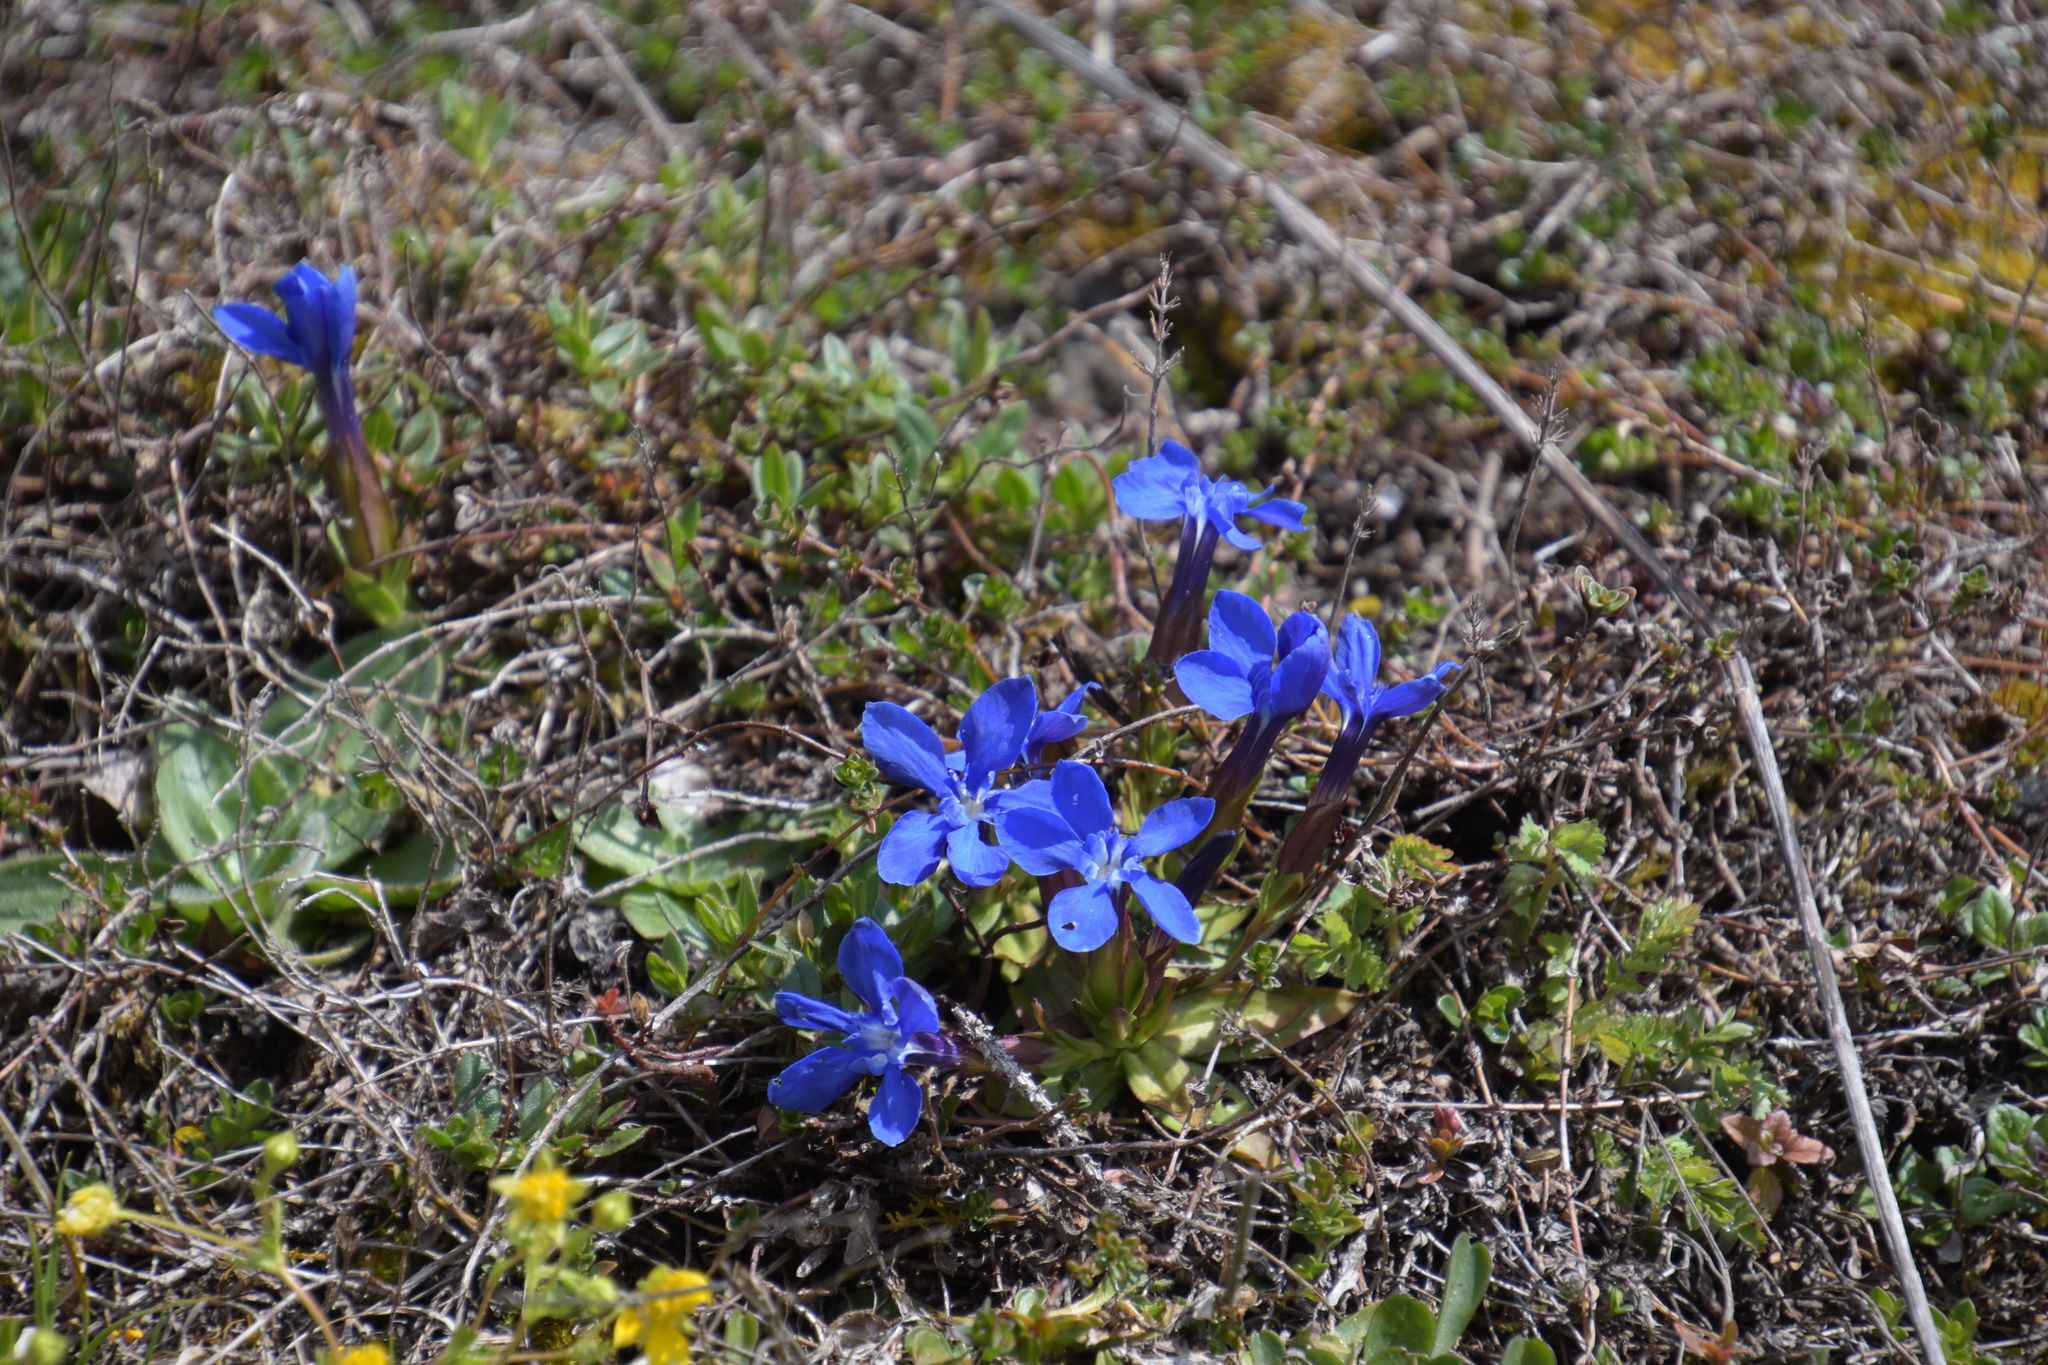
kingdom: Plantae
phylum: Tracheophyta
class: Magnoliopsida
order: Gentianales
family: Gentianaceae
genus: Gentiana
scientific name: Gentiana verna
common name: Spring gentian
